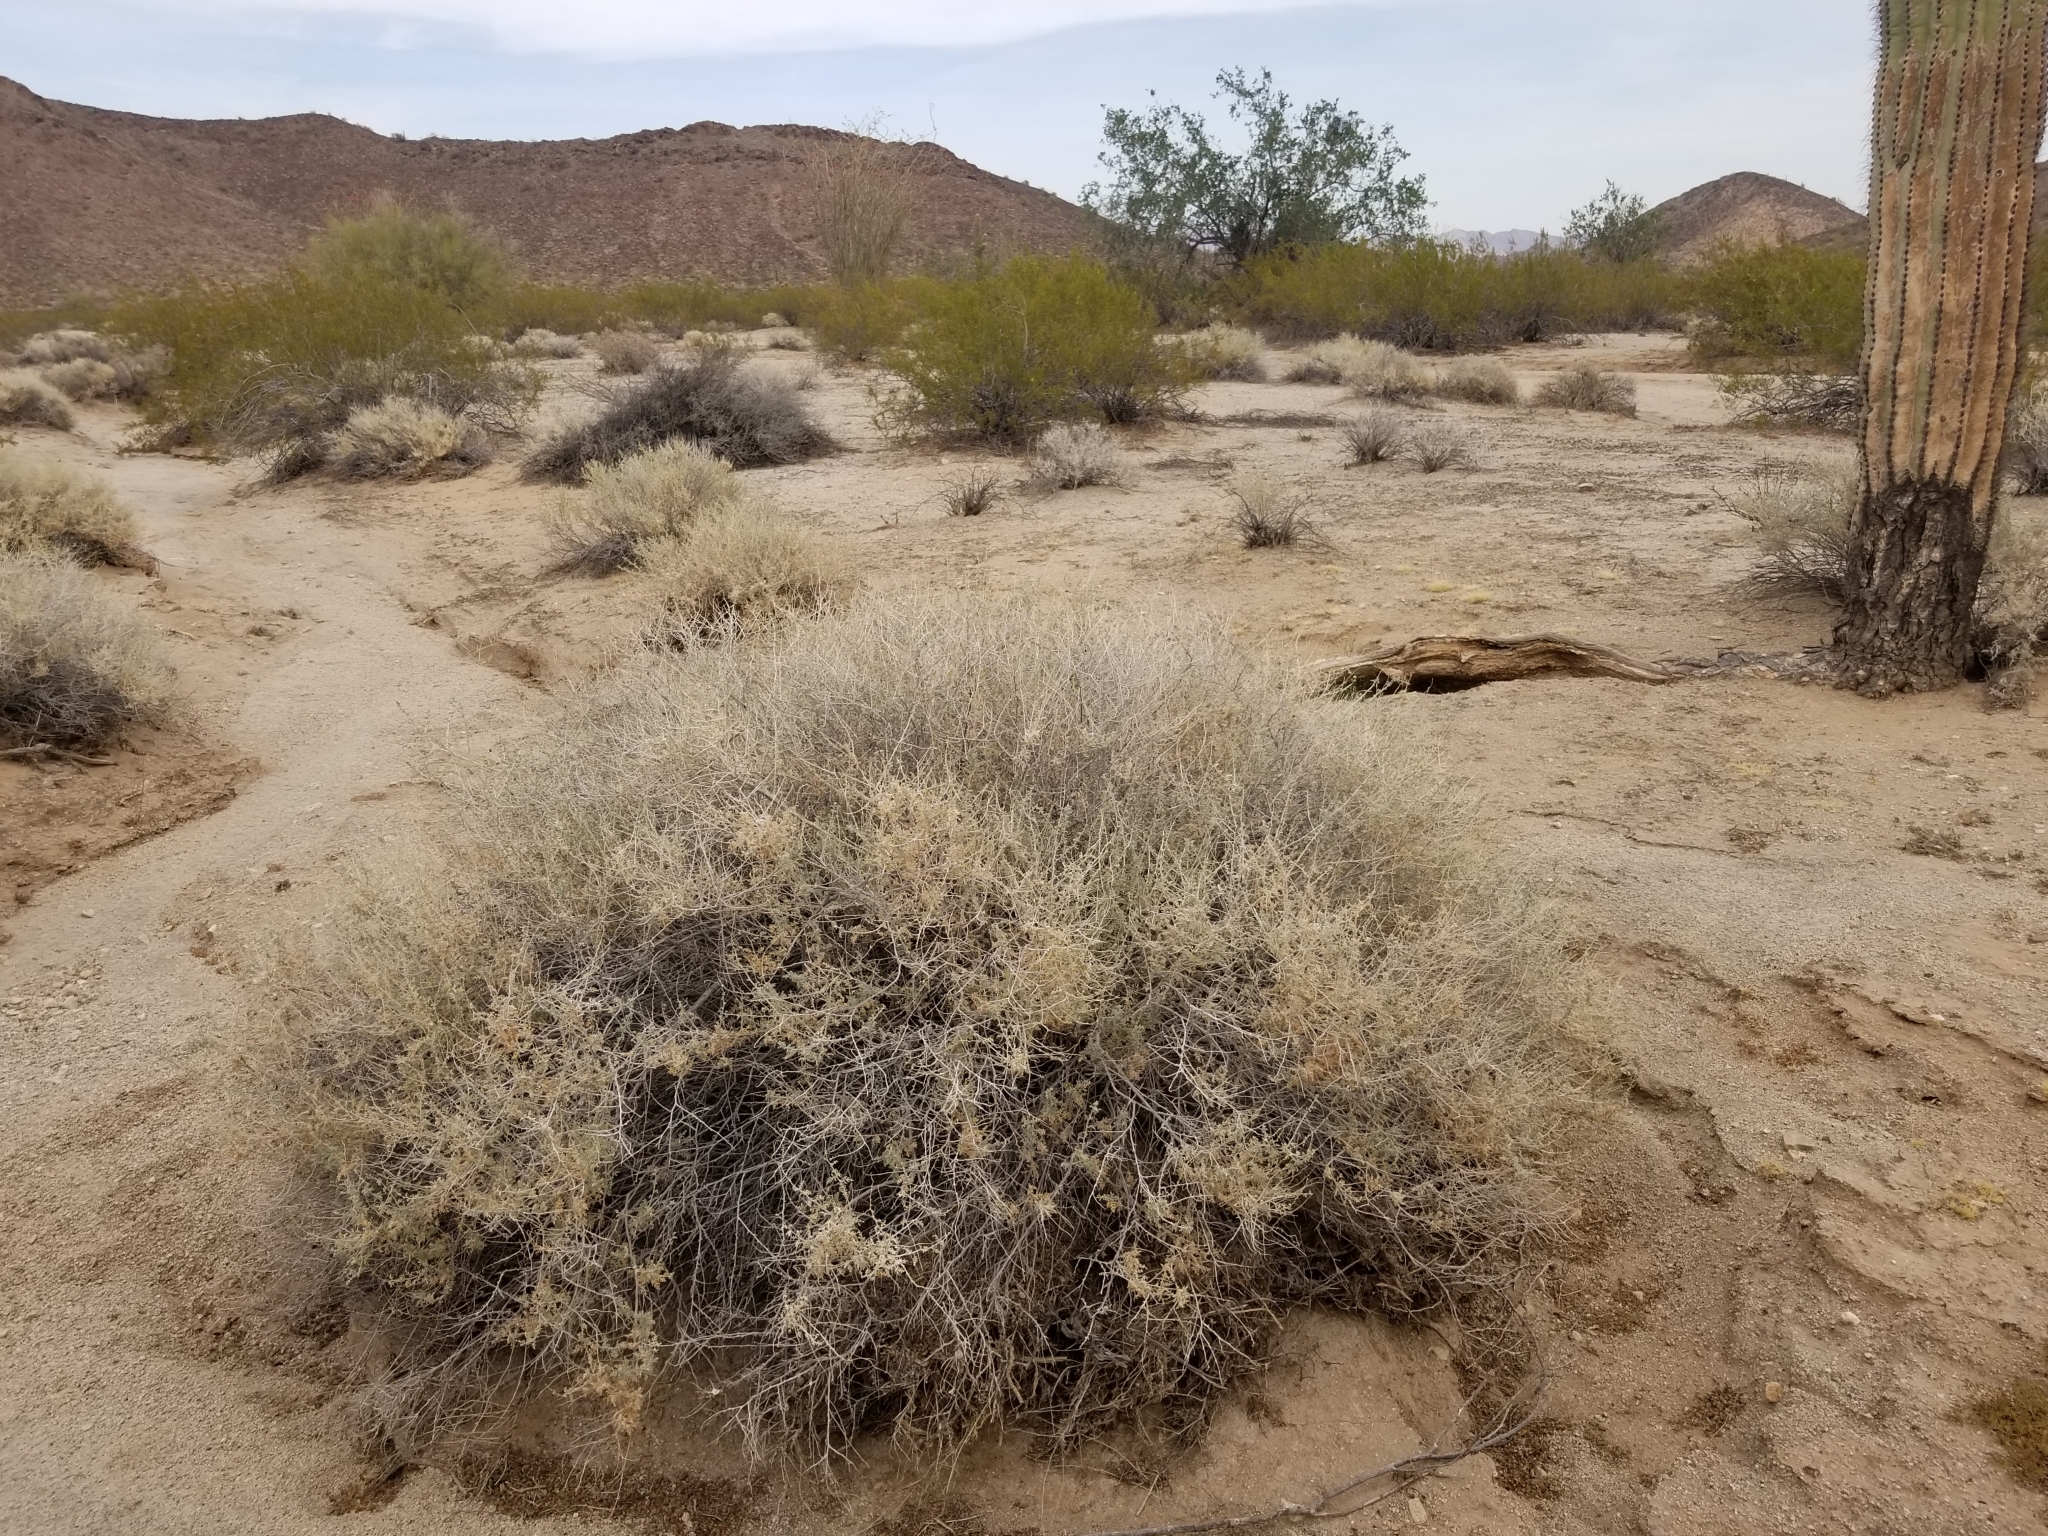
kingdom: Plantae
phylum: Tracheophyta
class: Magnoliopsida
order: Asterales
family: Asteraceae
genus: Ambrosia
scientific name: Ambrosia dumosa
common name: Bur-sage
